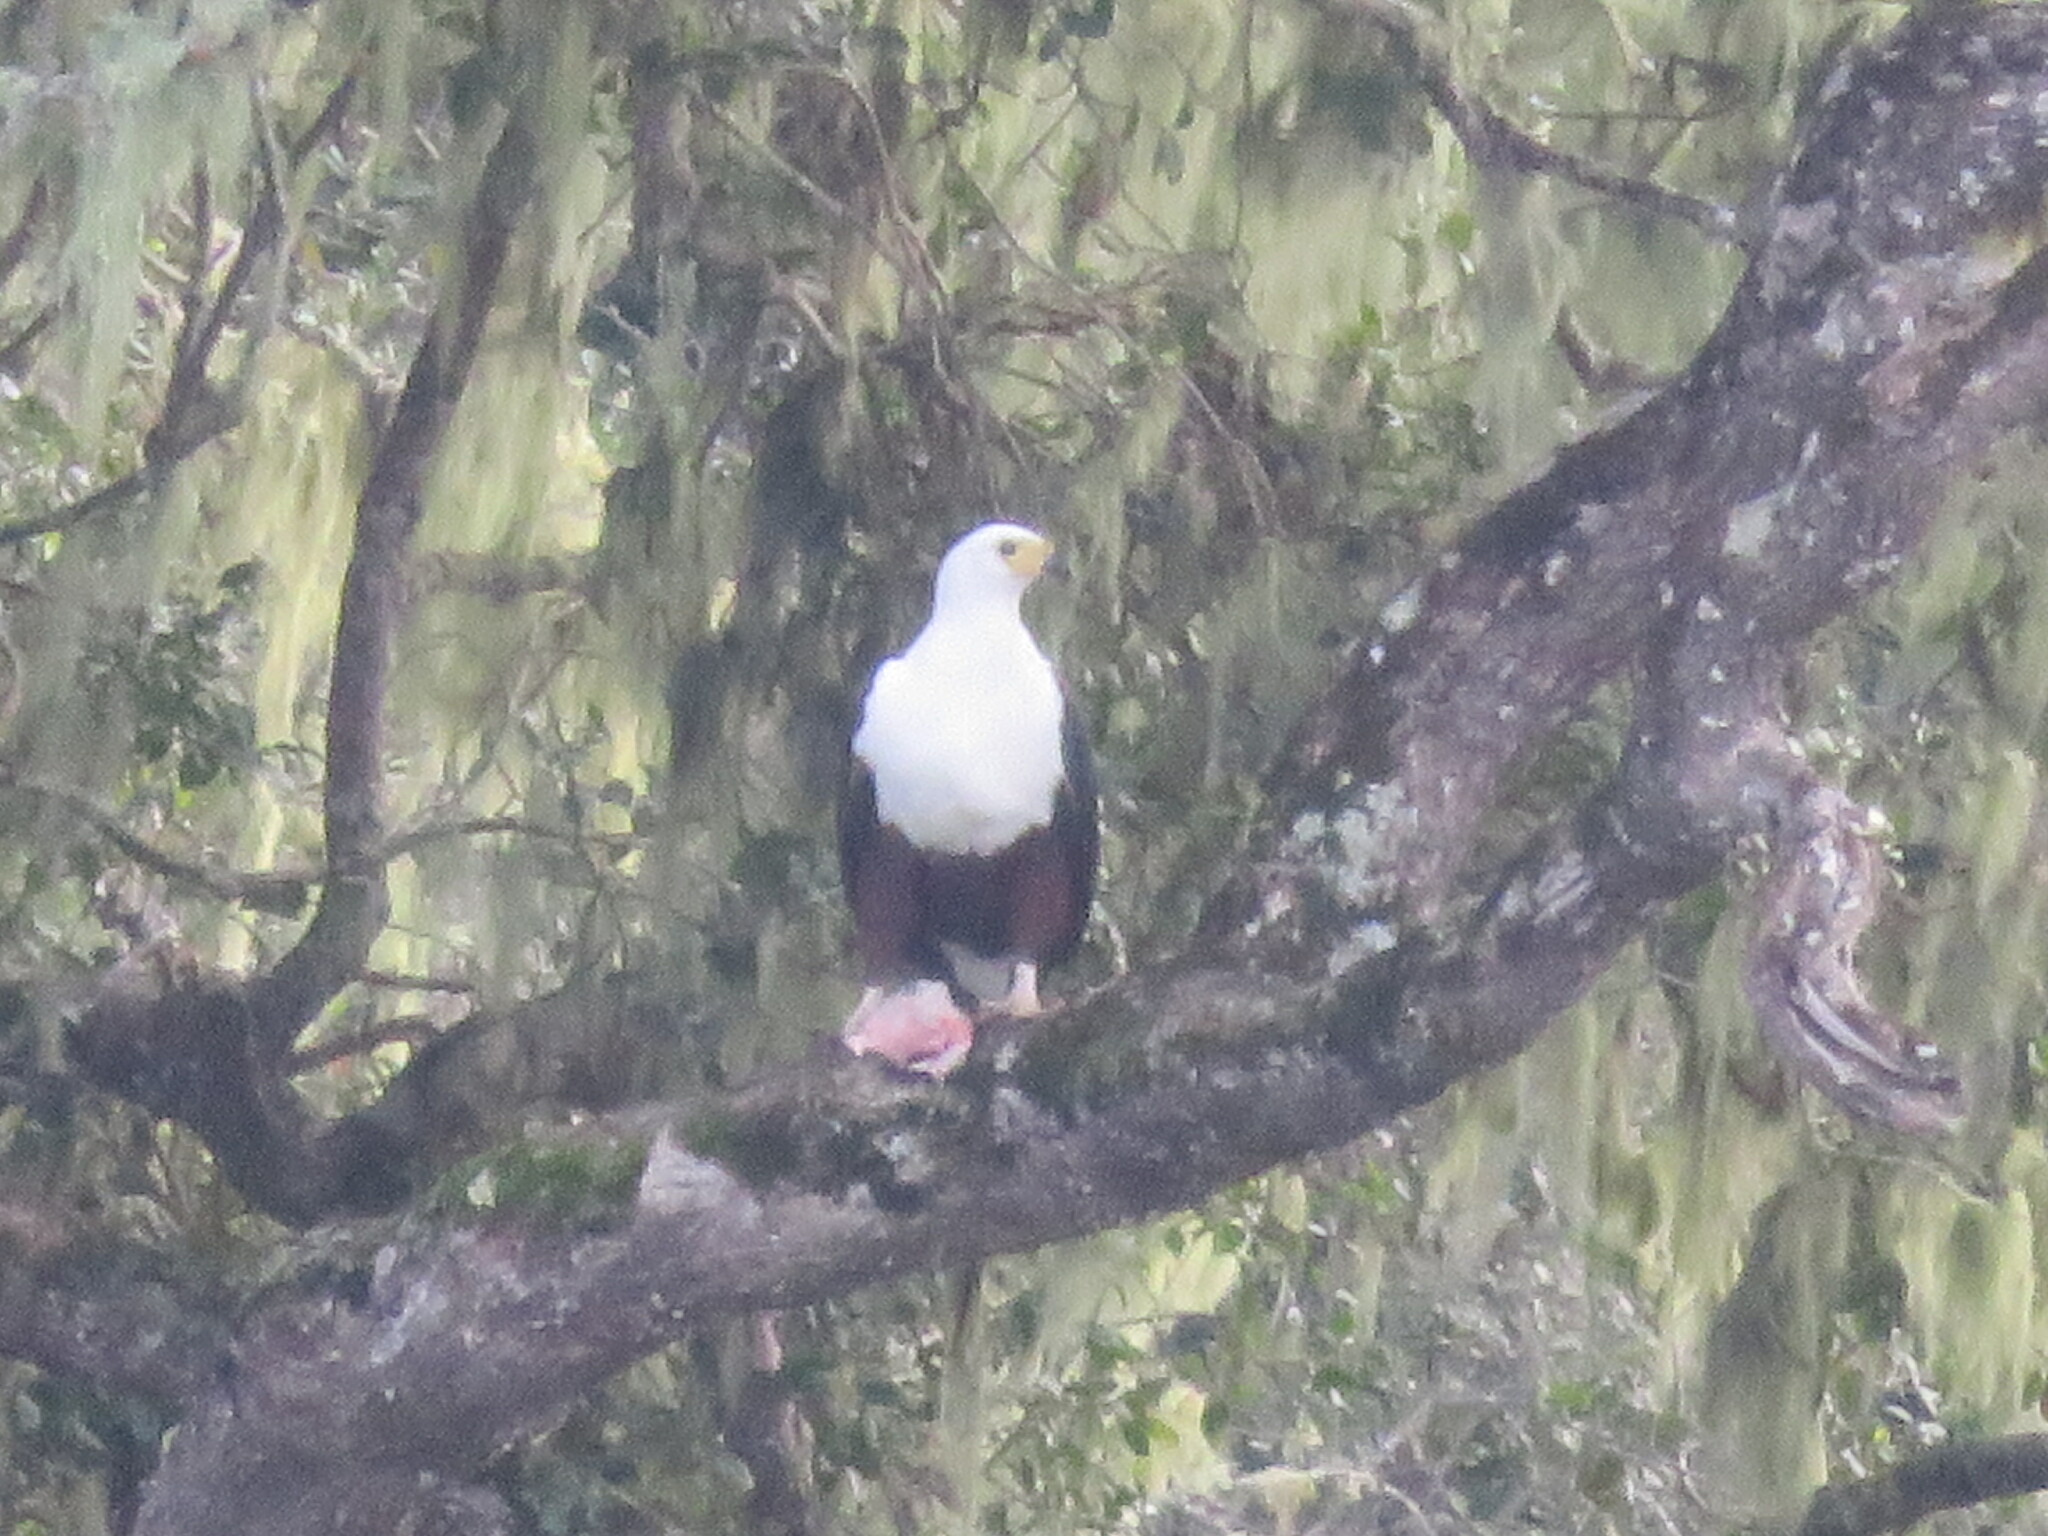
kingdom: Animalia
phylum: Chordata
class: Aves
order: Accipitriformes
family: Accipitridae
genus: Haliaeetus
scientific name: Haliaeetus vocifer
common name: African fish eagle
